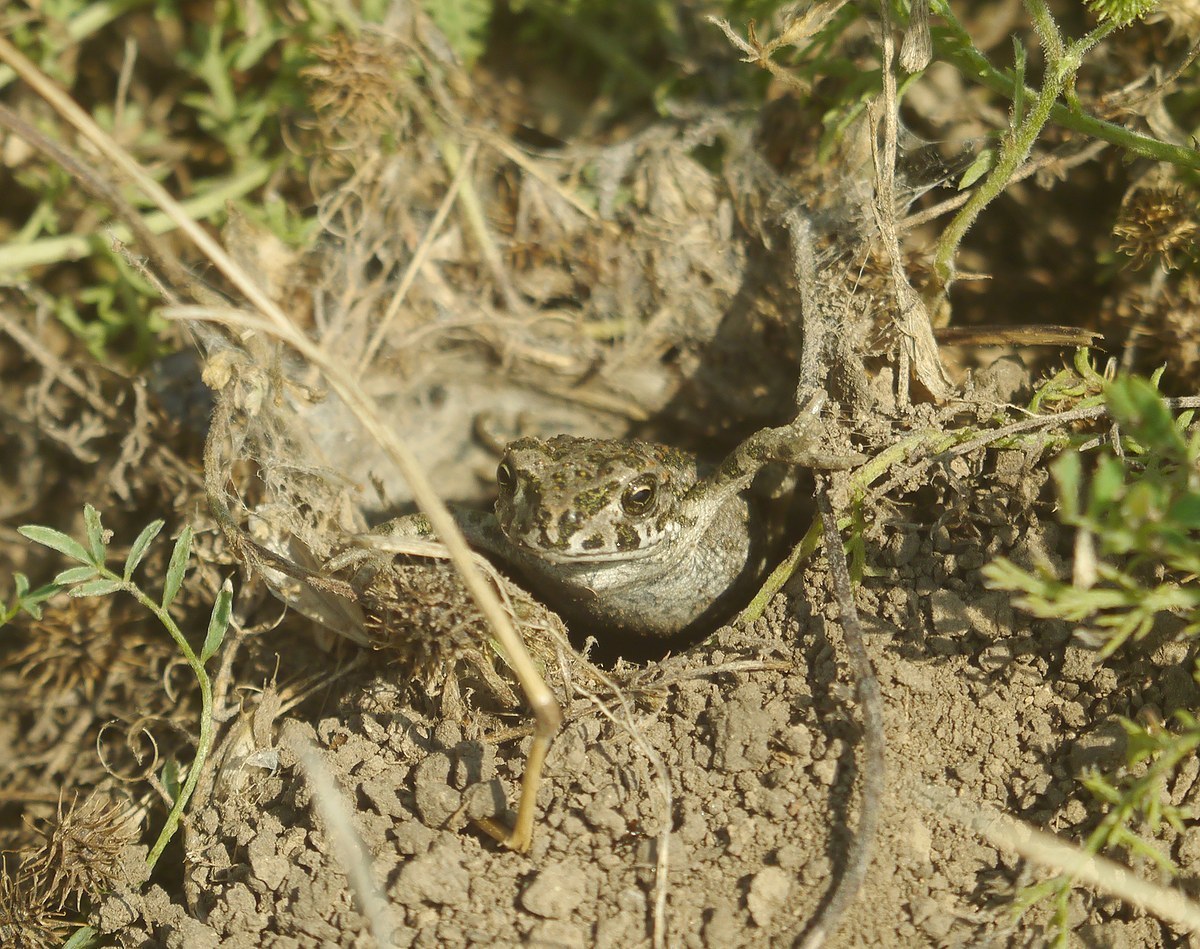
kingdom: Animalia
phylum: Chordata
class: Amphibia
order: Anura
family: Bufonidae
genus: Bufotes
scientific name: Bufotes viridis
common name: European green toad
